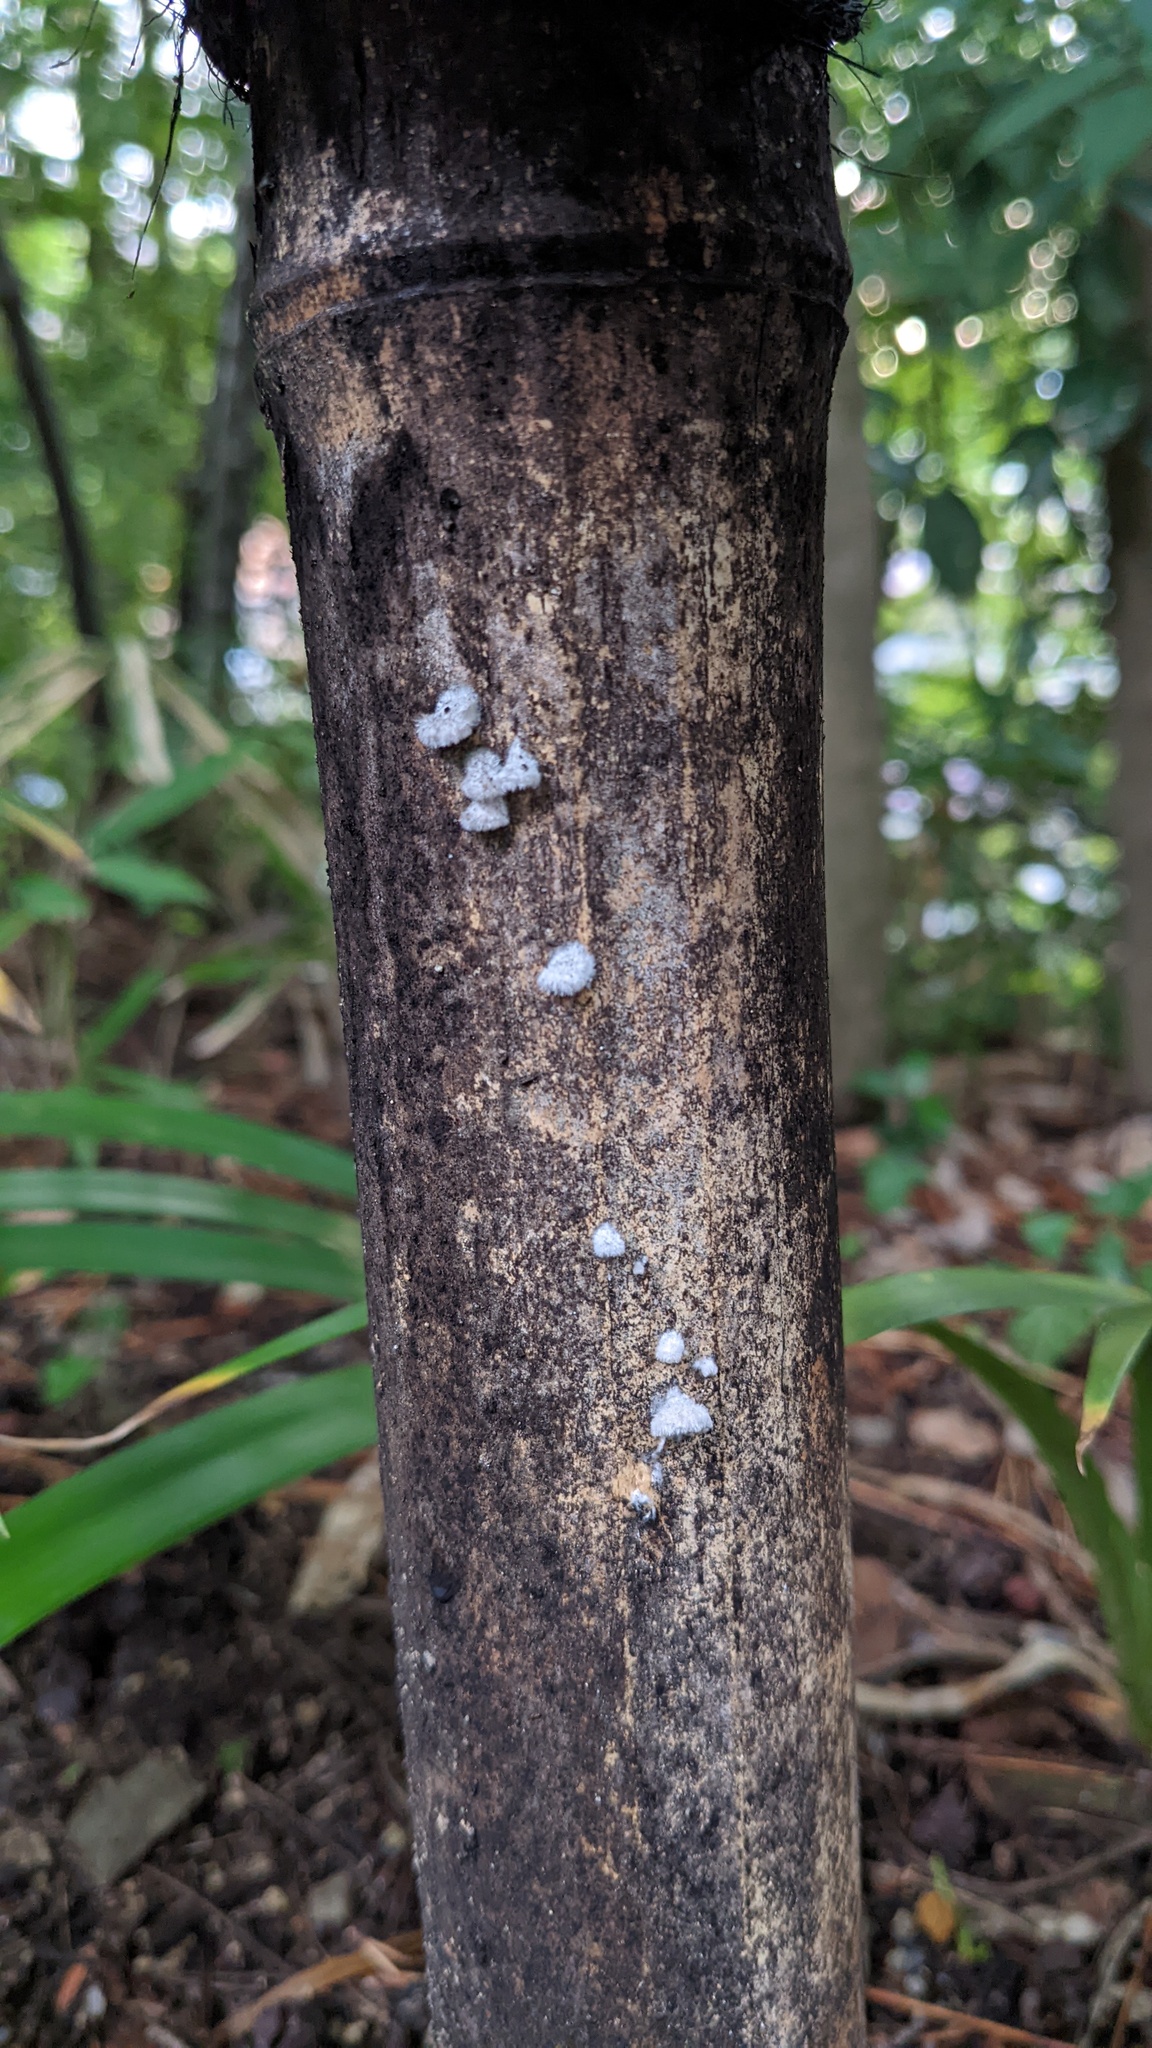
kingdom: Fungi
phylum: Basidiomycota
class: Agaricomycetes
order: Agaricales
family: Schizophyllaceae
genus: Schizophyllum
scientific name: Schizophyllum commune
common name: Common porecrust
